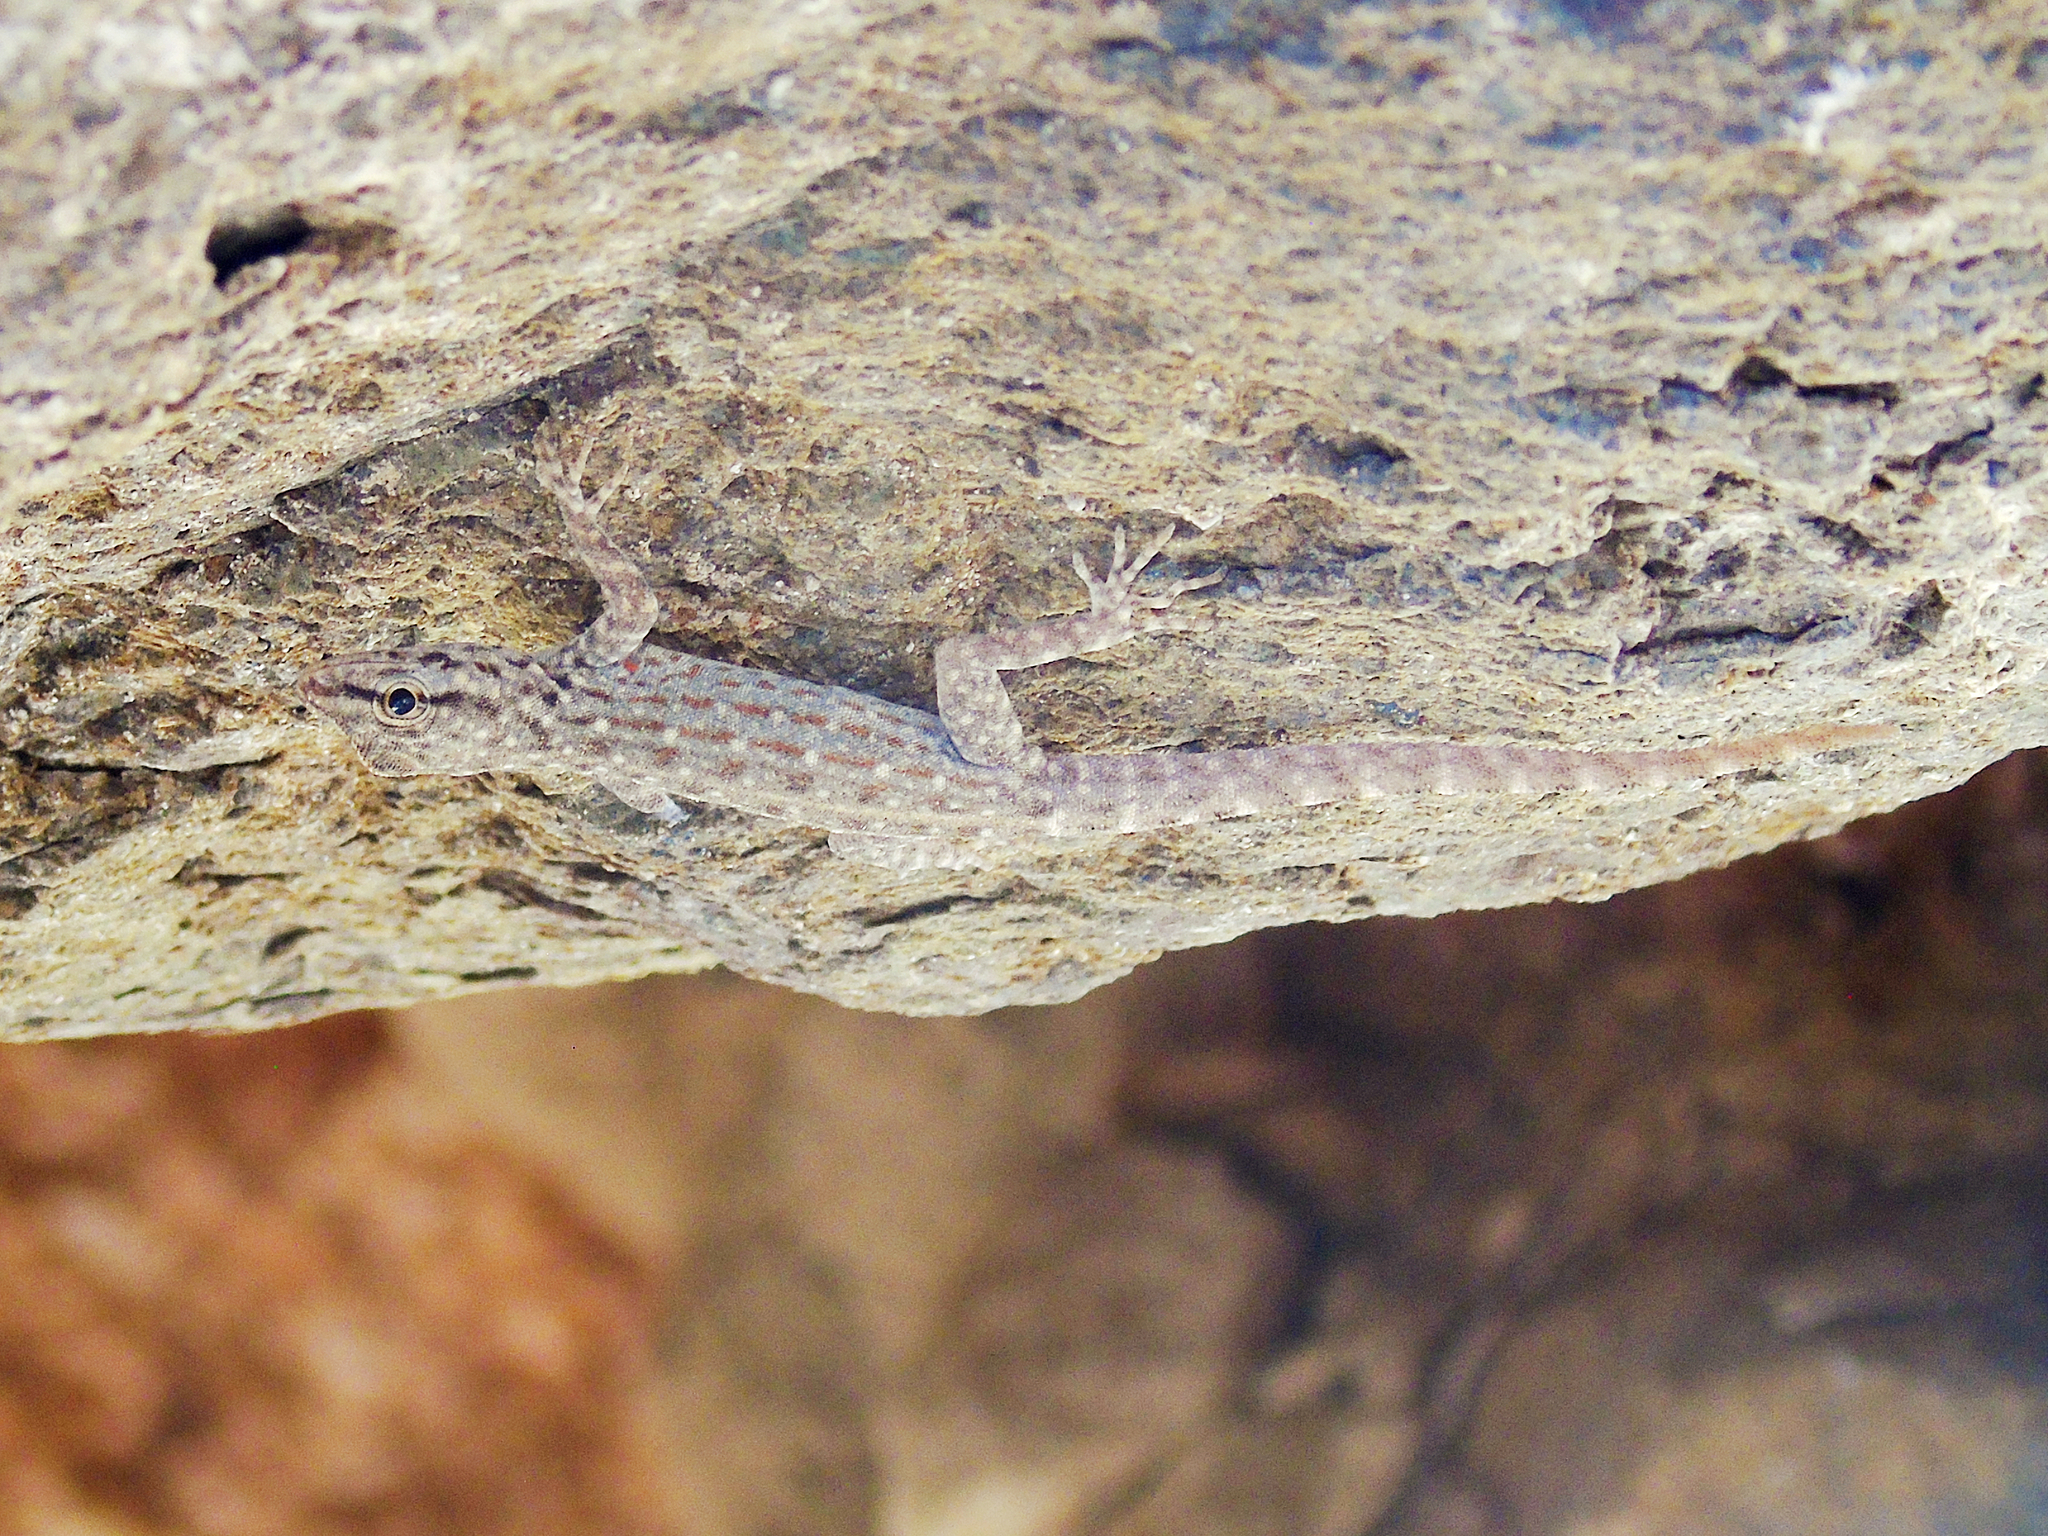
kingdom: Animalia
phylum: Chordata
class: Squamata
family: Sphaerodactylidae
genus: Pristurus
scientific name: Pristurus rupestris
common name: Blanford’s semaphore gecko
